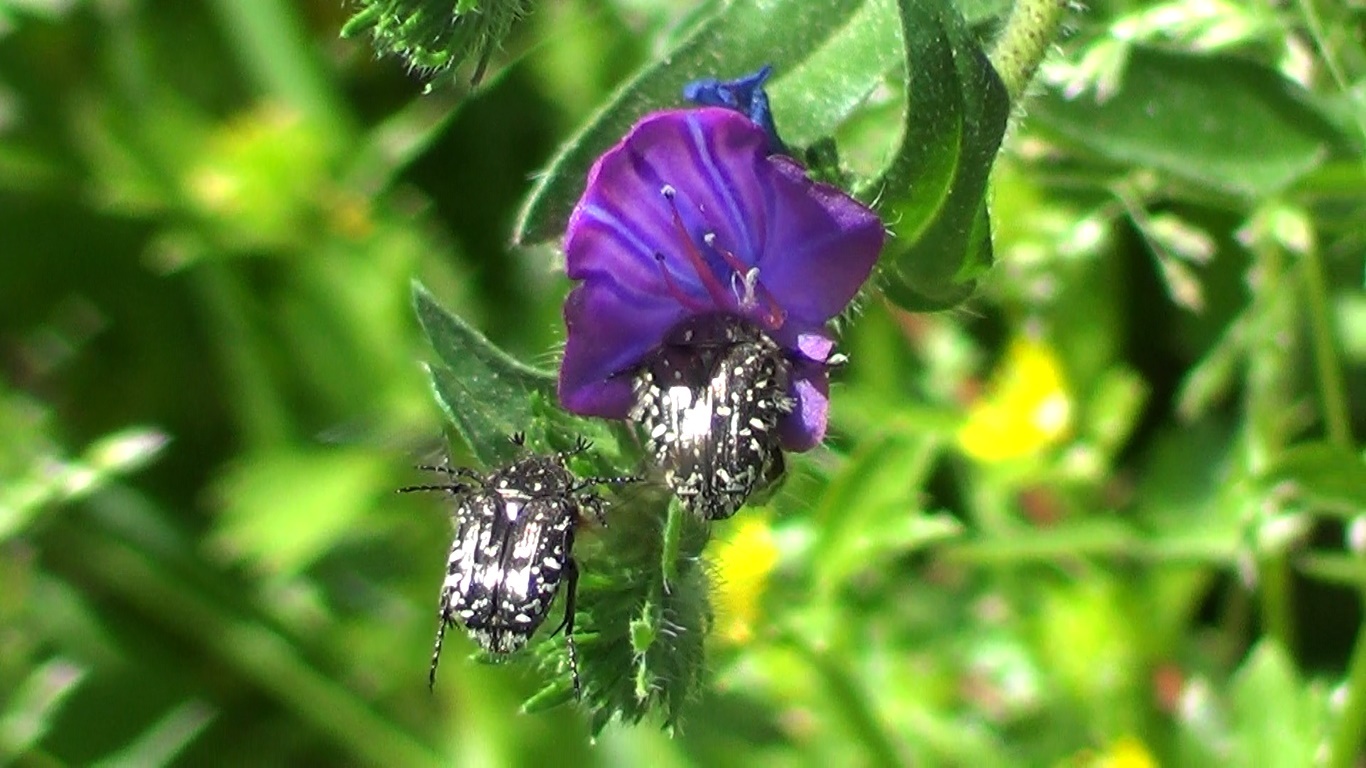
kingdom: Animalia
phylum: Arthropoda
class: Insecta
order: Coleoptera
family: Scarabaeidae
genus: Oxythyrea
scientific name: Oxythyrea funesta
